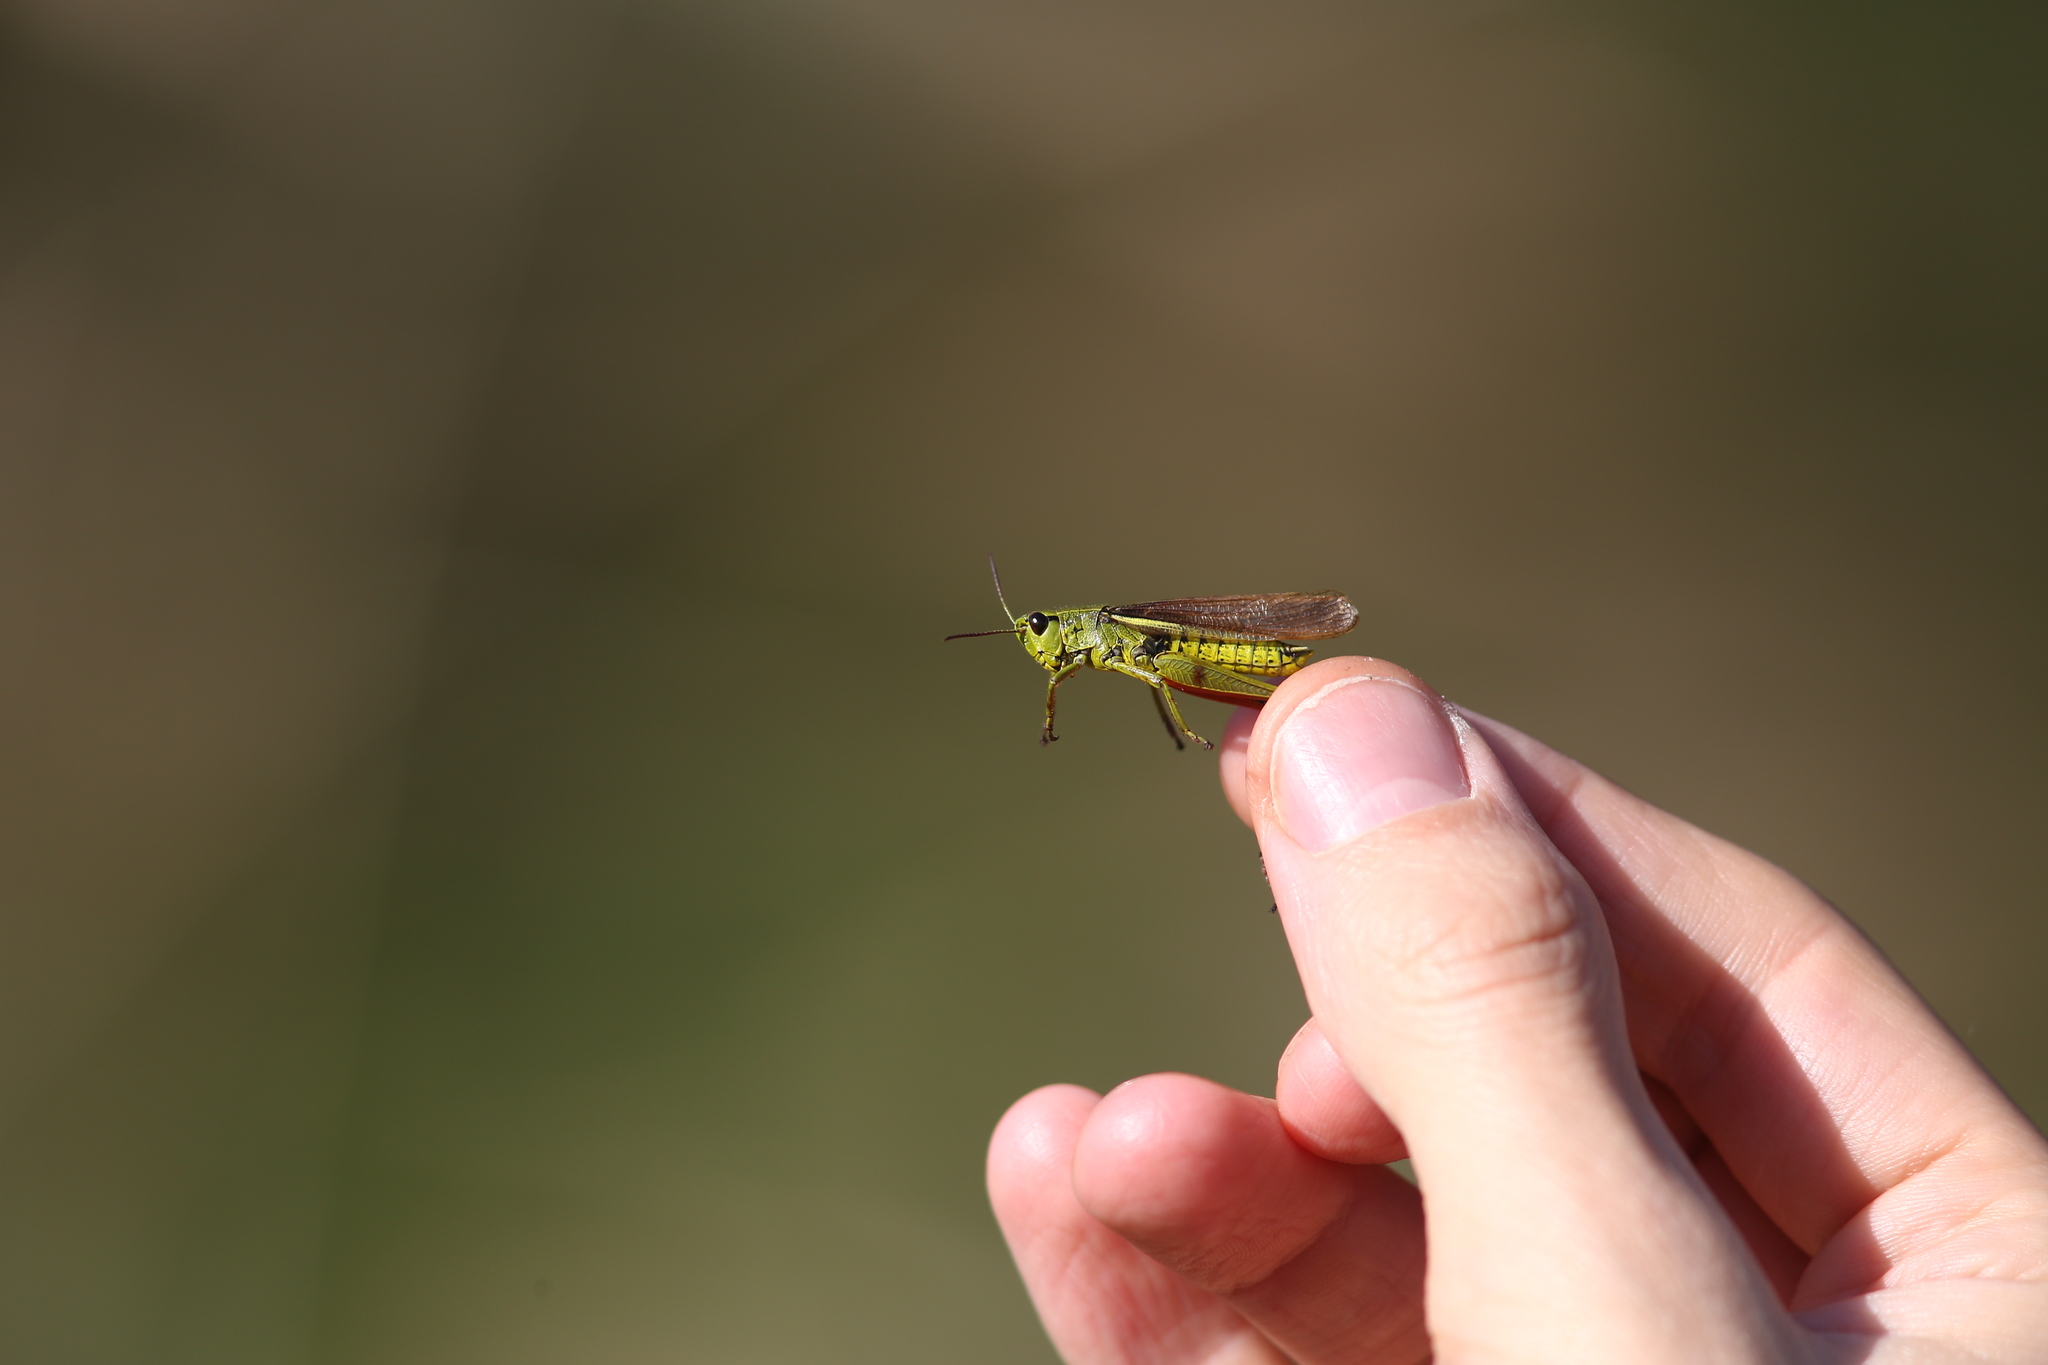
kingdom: Animalia
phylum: Arthropoda
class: Insecta
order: Orthoptera
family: Acrididae
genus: Stethophyma
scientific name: Stethophyma grossum
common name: Large marsh grasshopper
